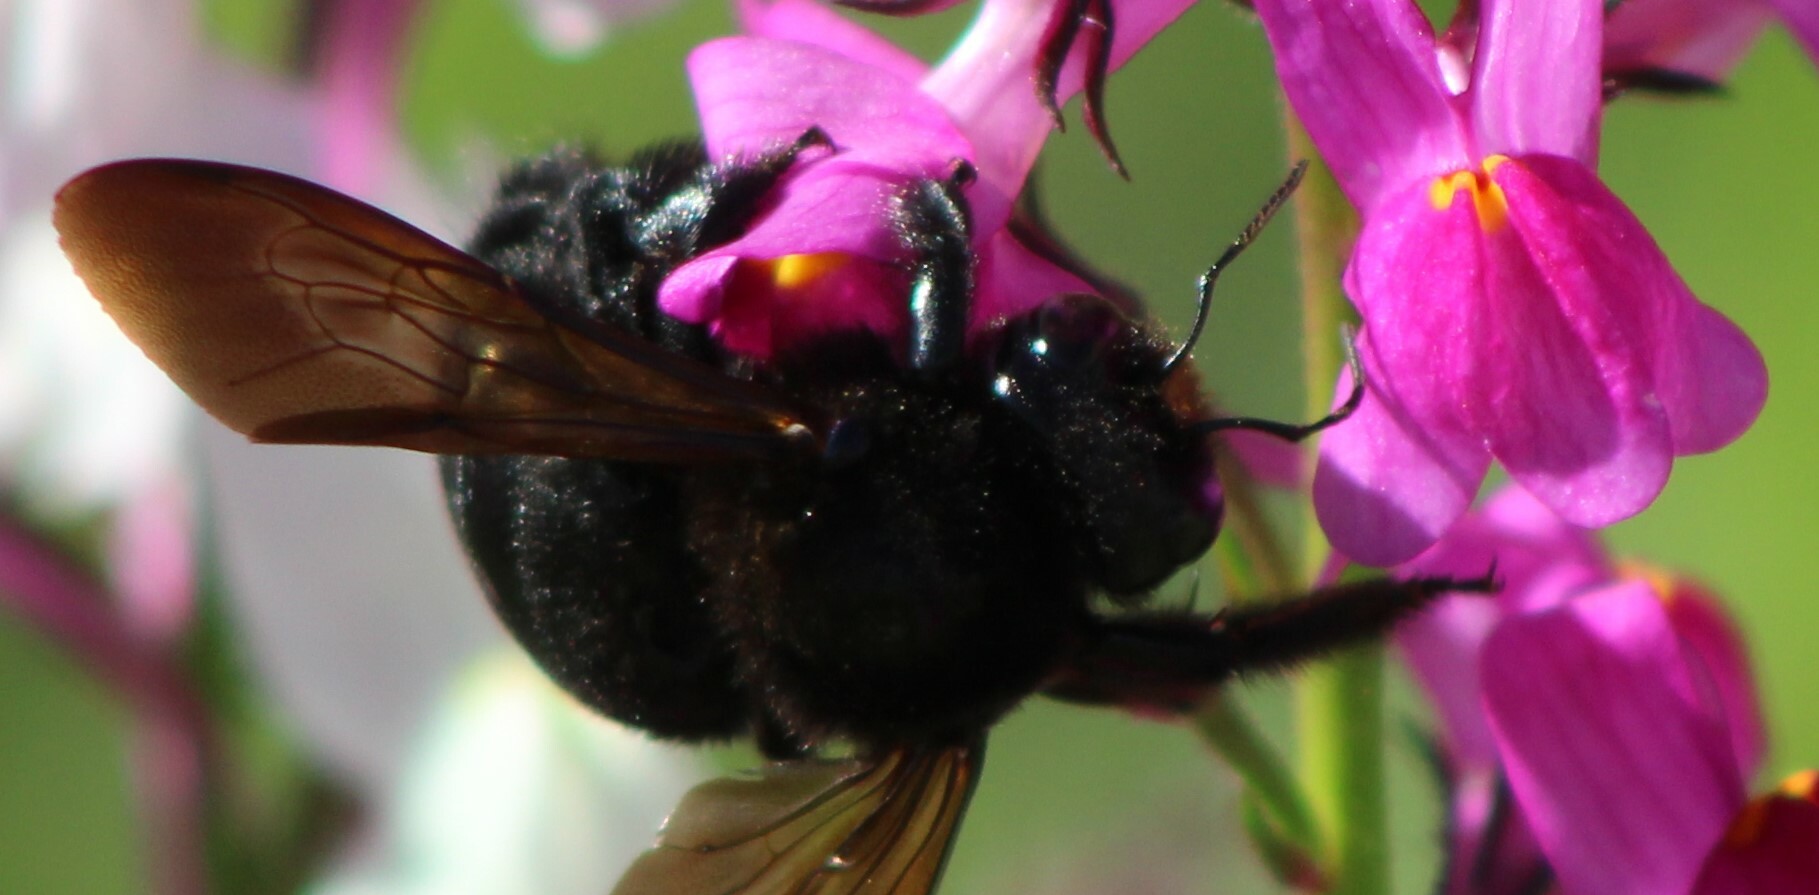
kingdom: Animalia
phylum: Arthropoda
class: Insecta
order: Hymenoptera
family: Apidae
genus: Xylocopa
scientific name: Xylocopa sonorina
